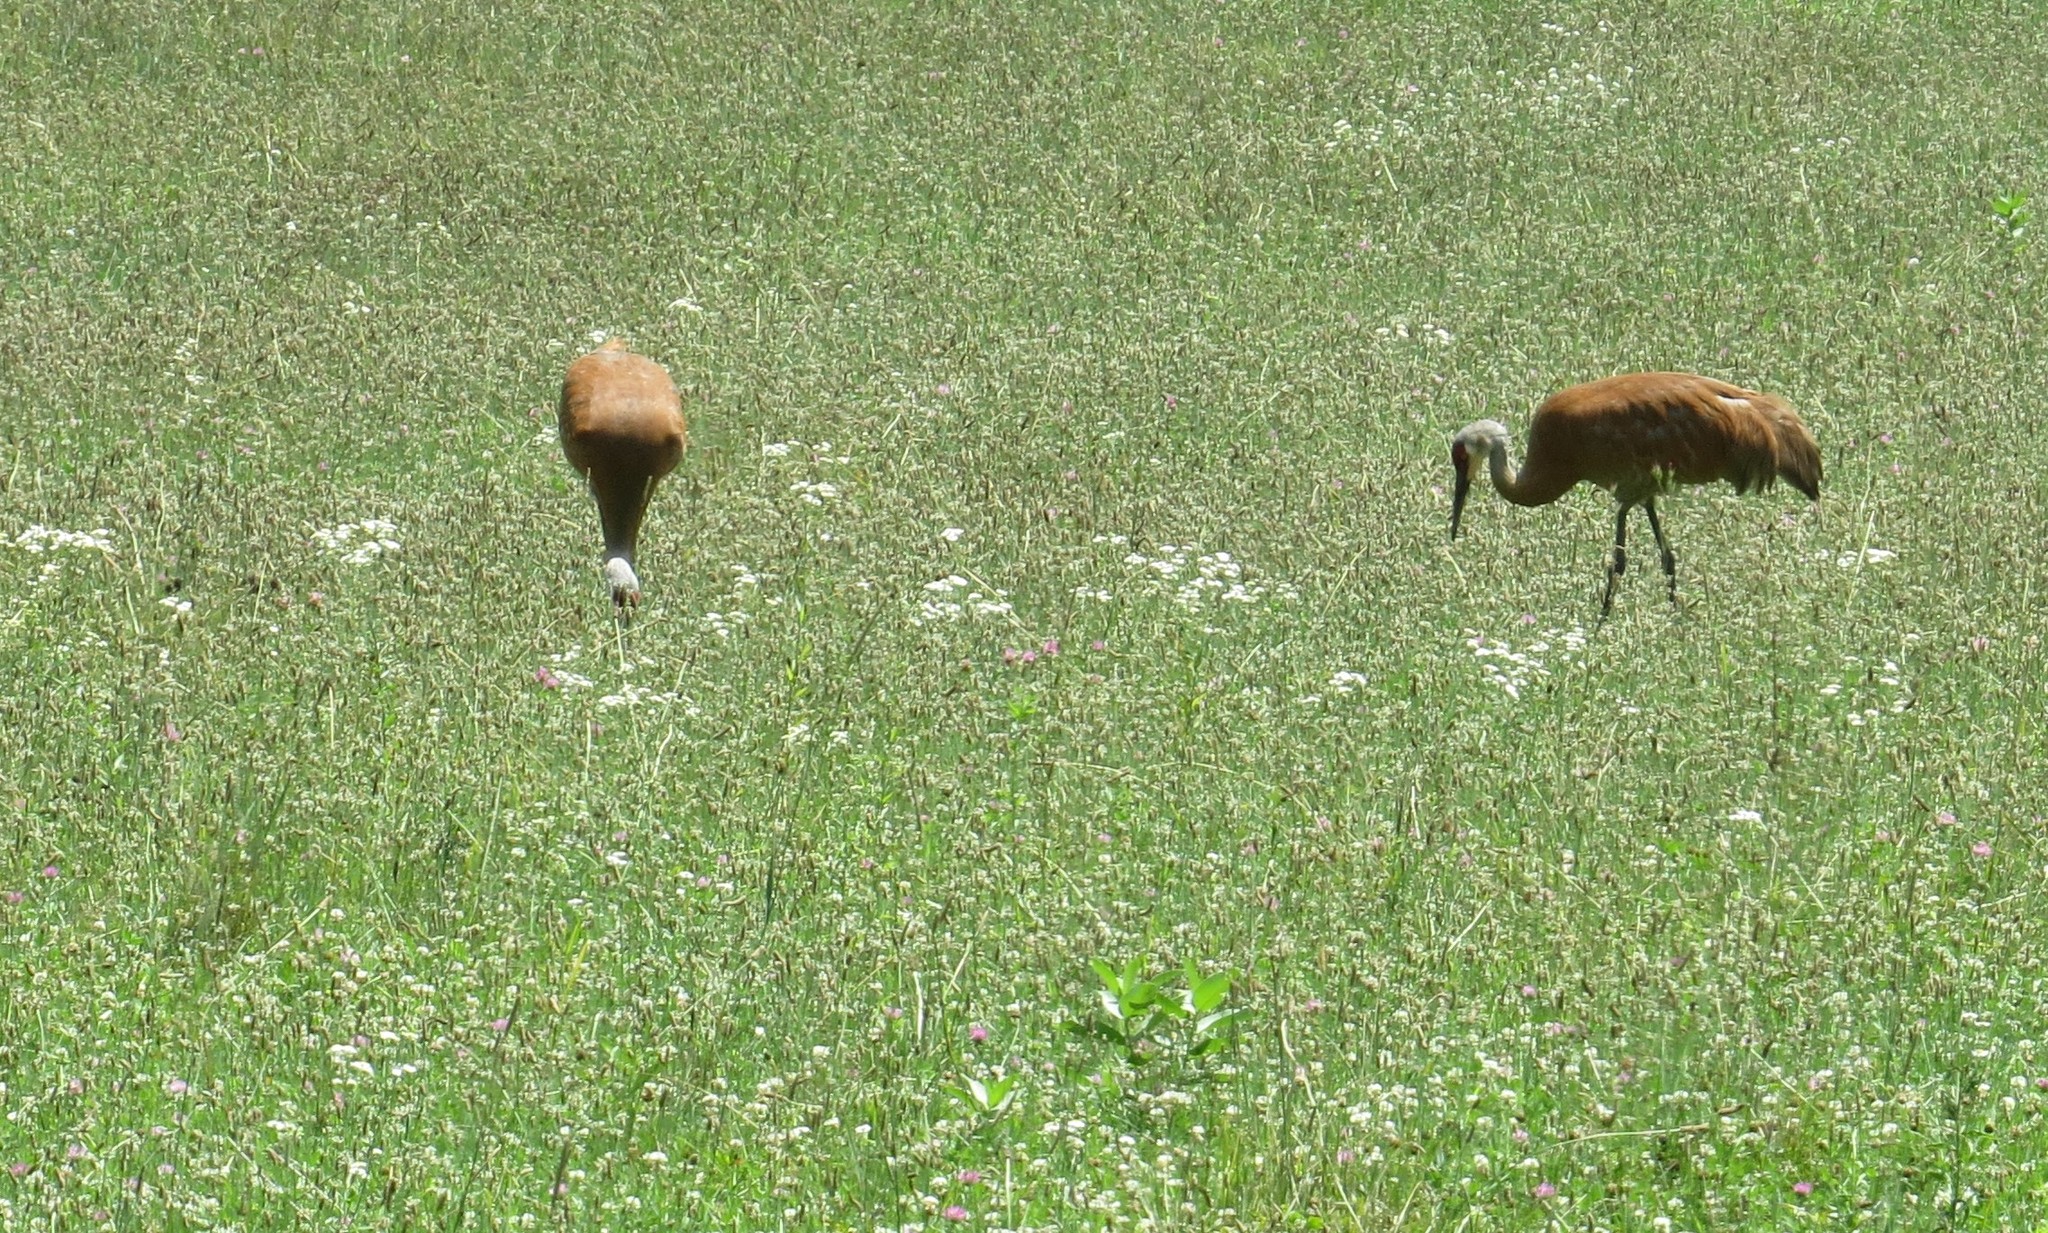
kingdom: Animalia
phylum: Chordata
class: Aves
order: Gruiformes
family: Gruidae
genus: Grus
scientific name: Grus canadensis
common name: Sandhill crane
